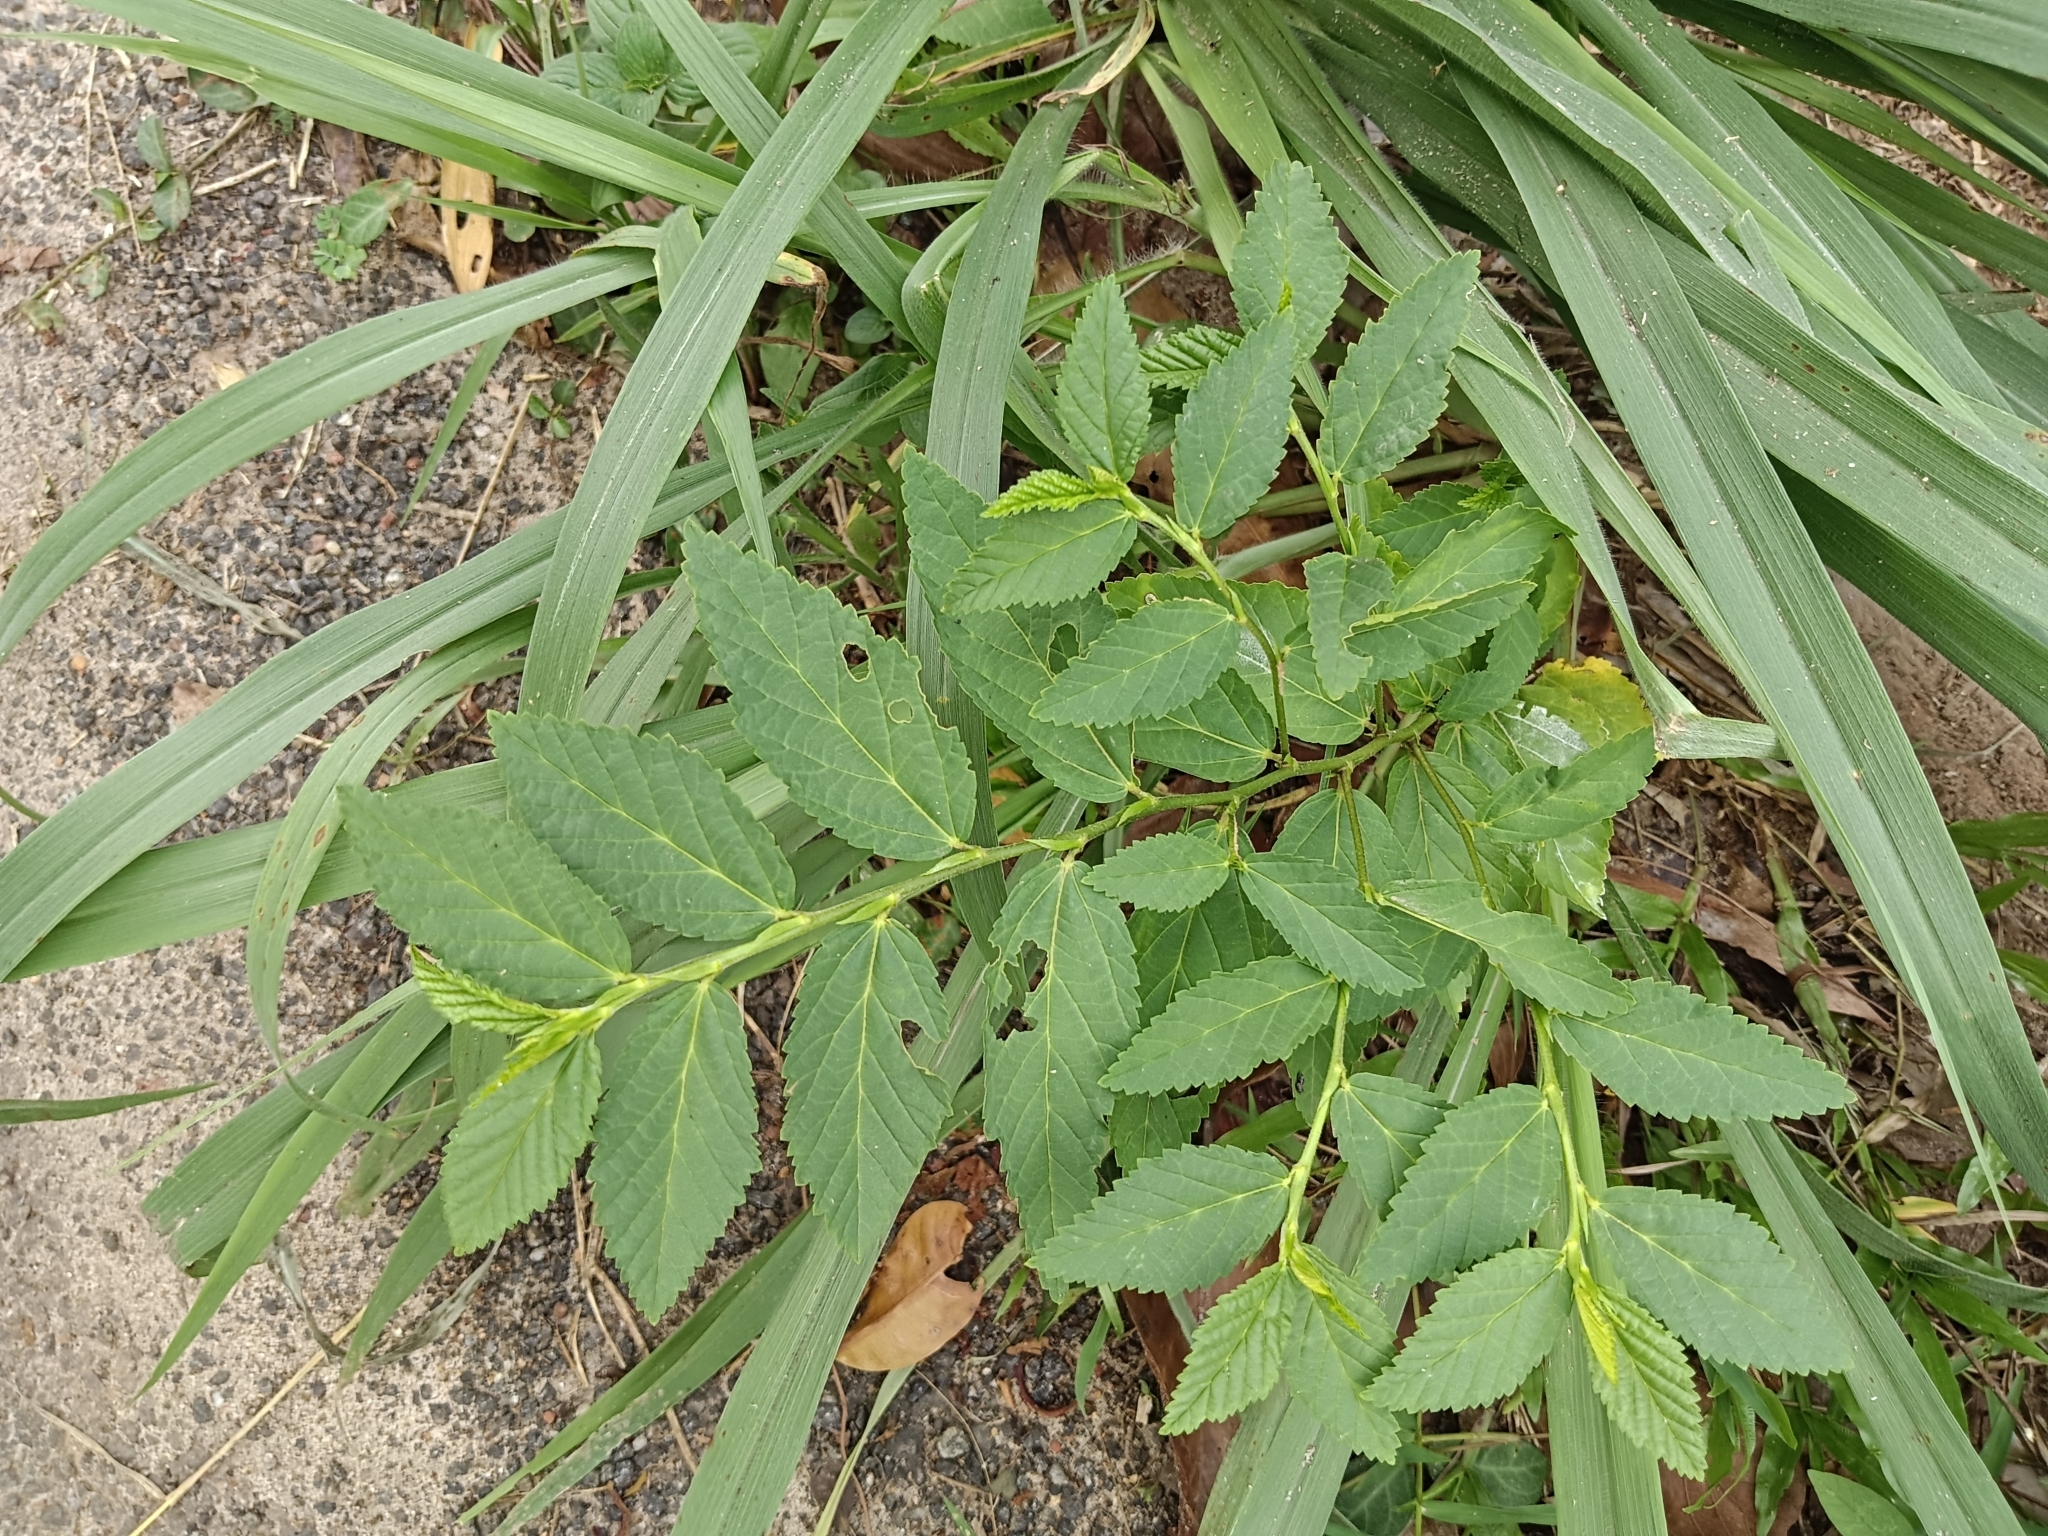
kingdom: Plantae
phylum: Tracheophyta
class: Magnoliopsida
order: Malvales
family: Malvaceae
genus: Sida
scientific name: Sida acuta
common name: Common wireweed
